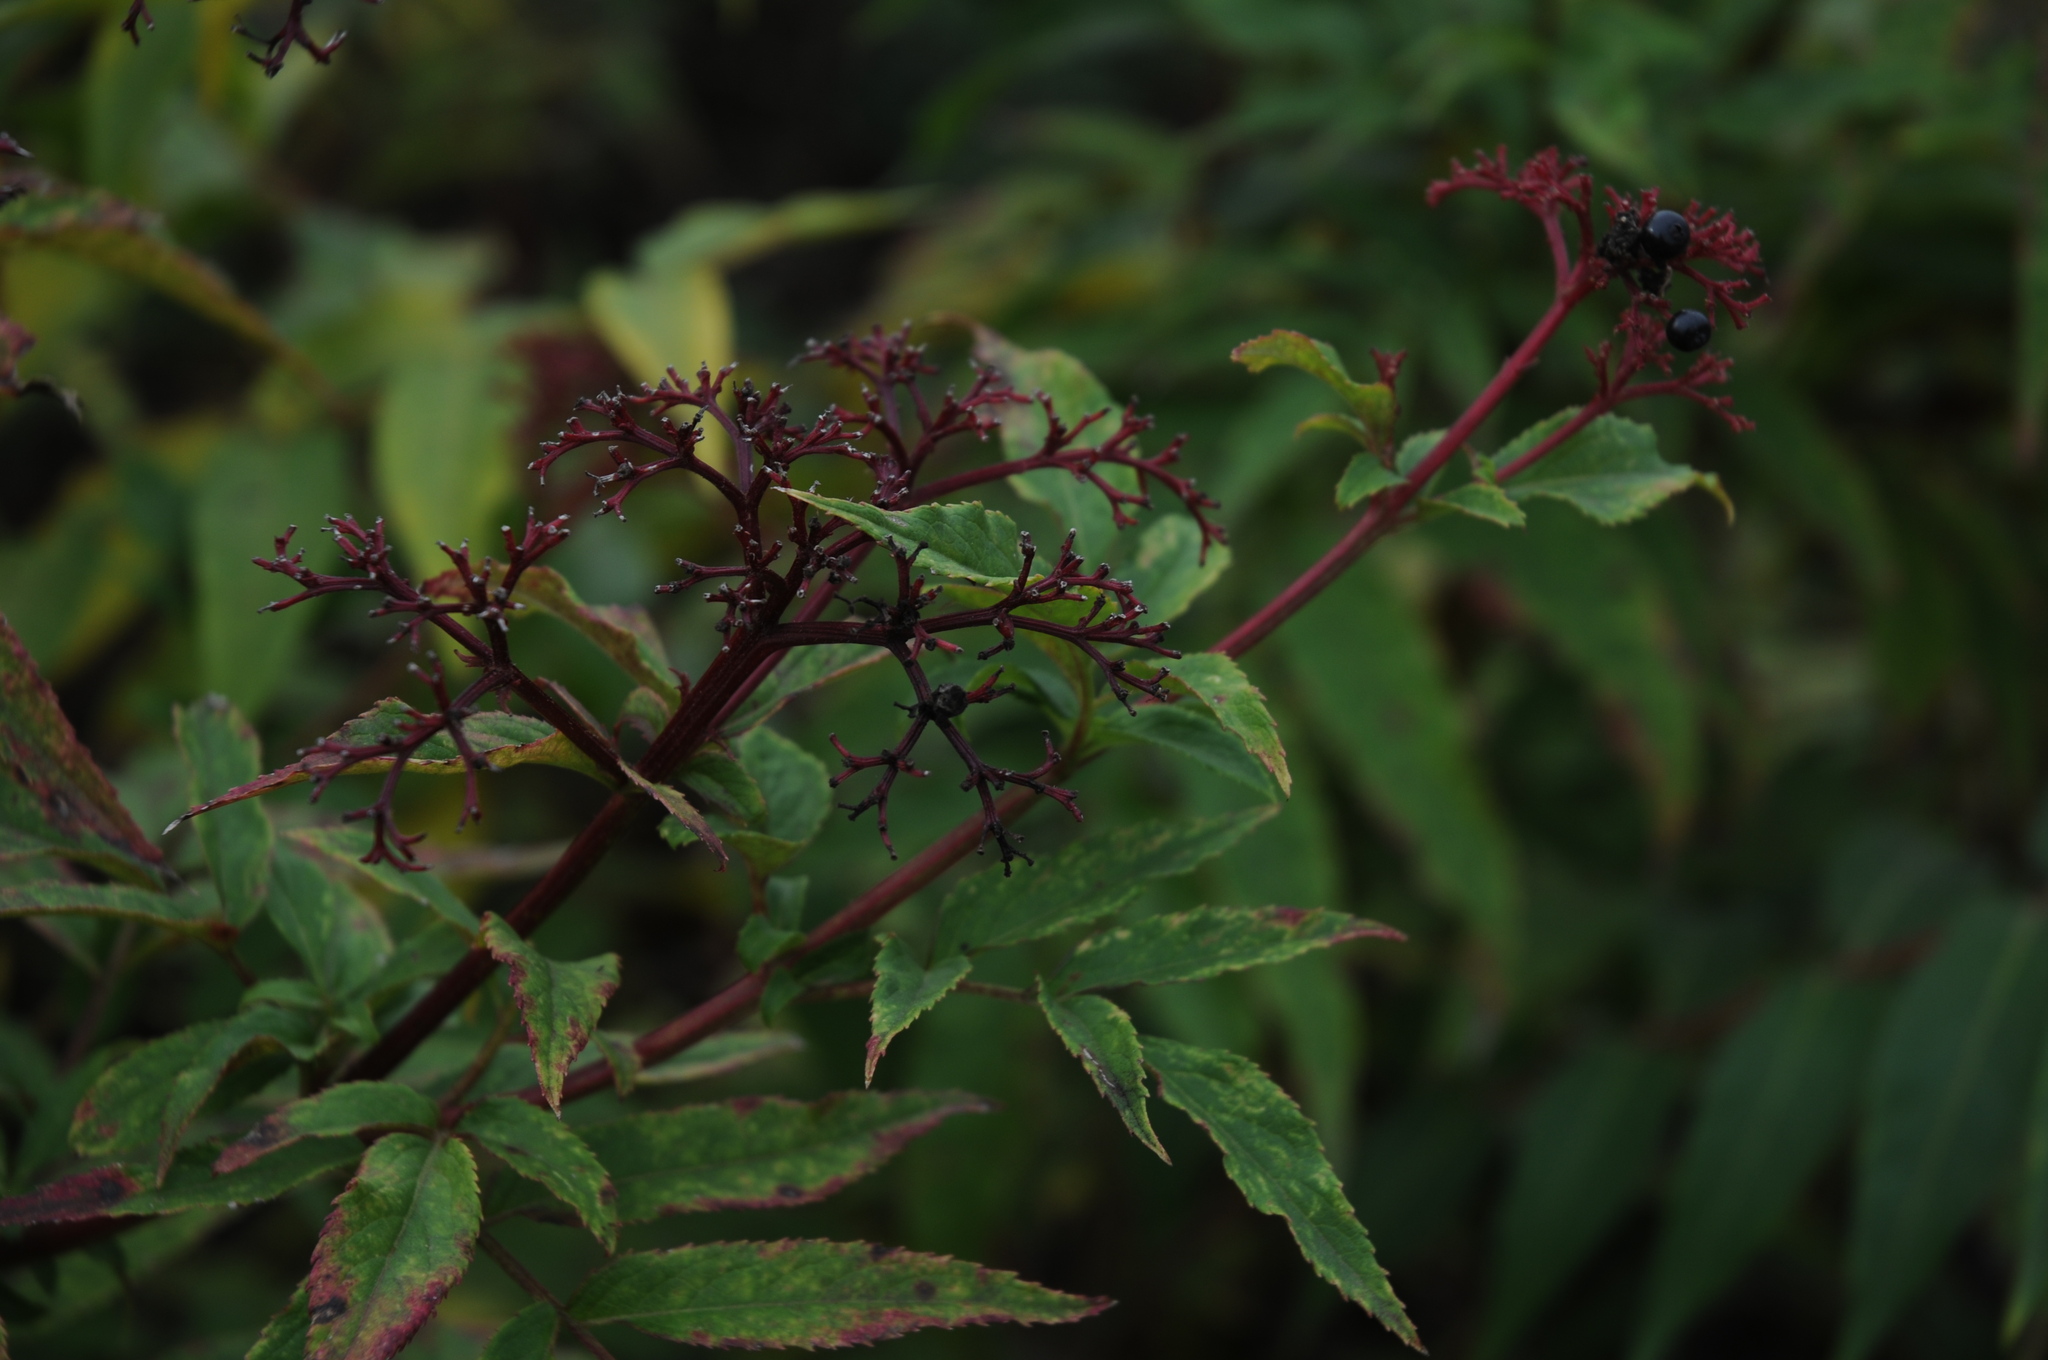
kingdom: Plantae
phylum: Tracheophyta
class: Magnoliopsida
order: Dipsacales
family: Viburnaceae
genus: Sambucus
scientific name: Sambucus ebulus
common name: Dwarf elder
